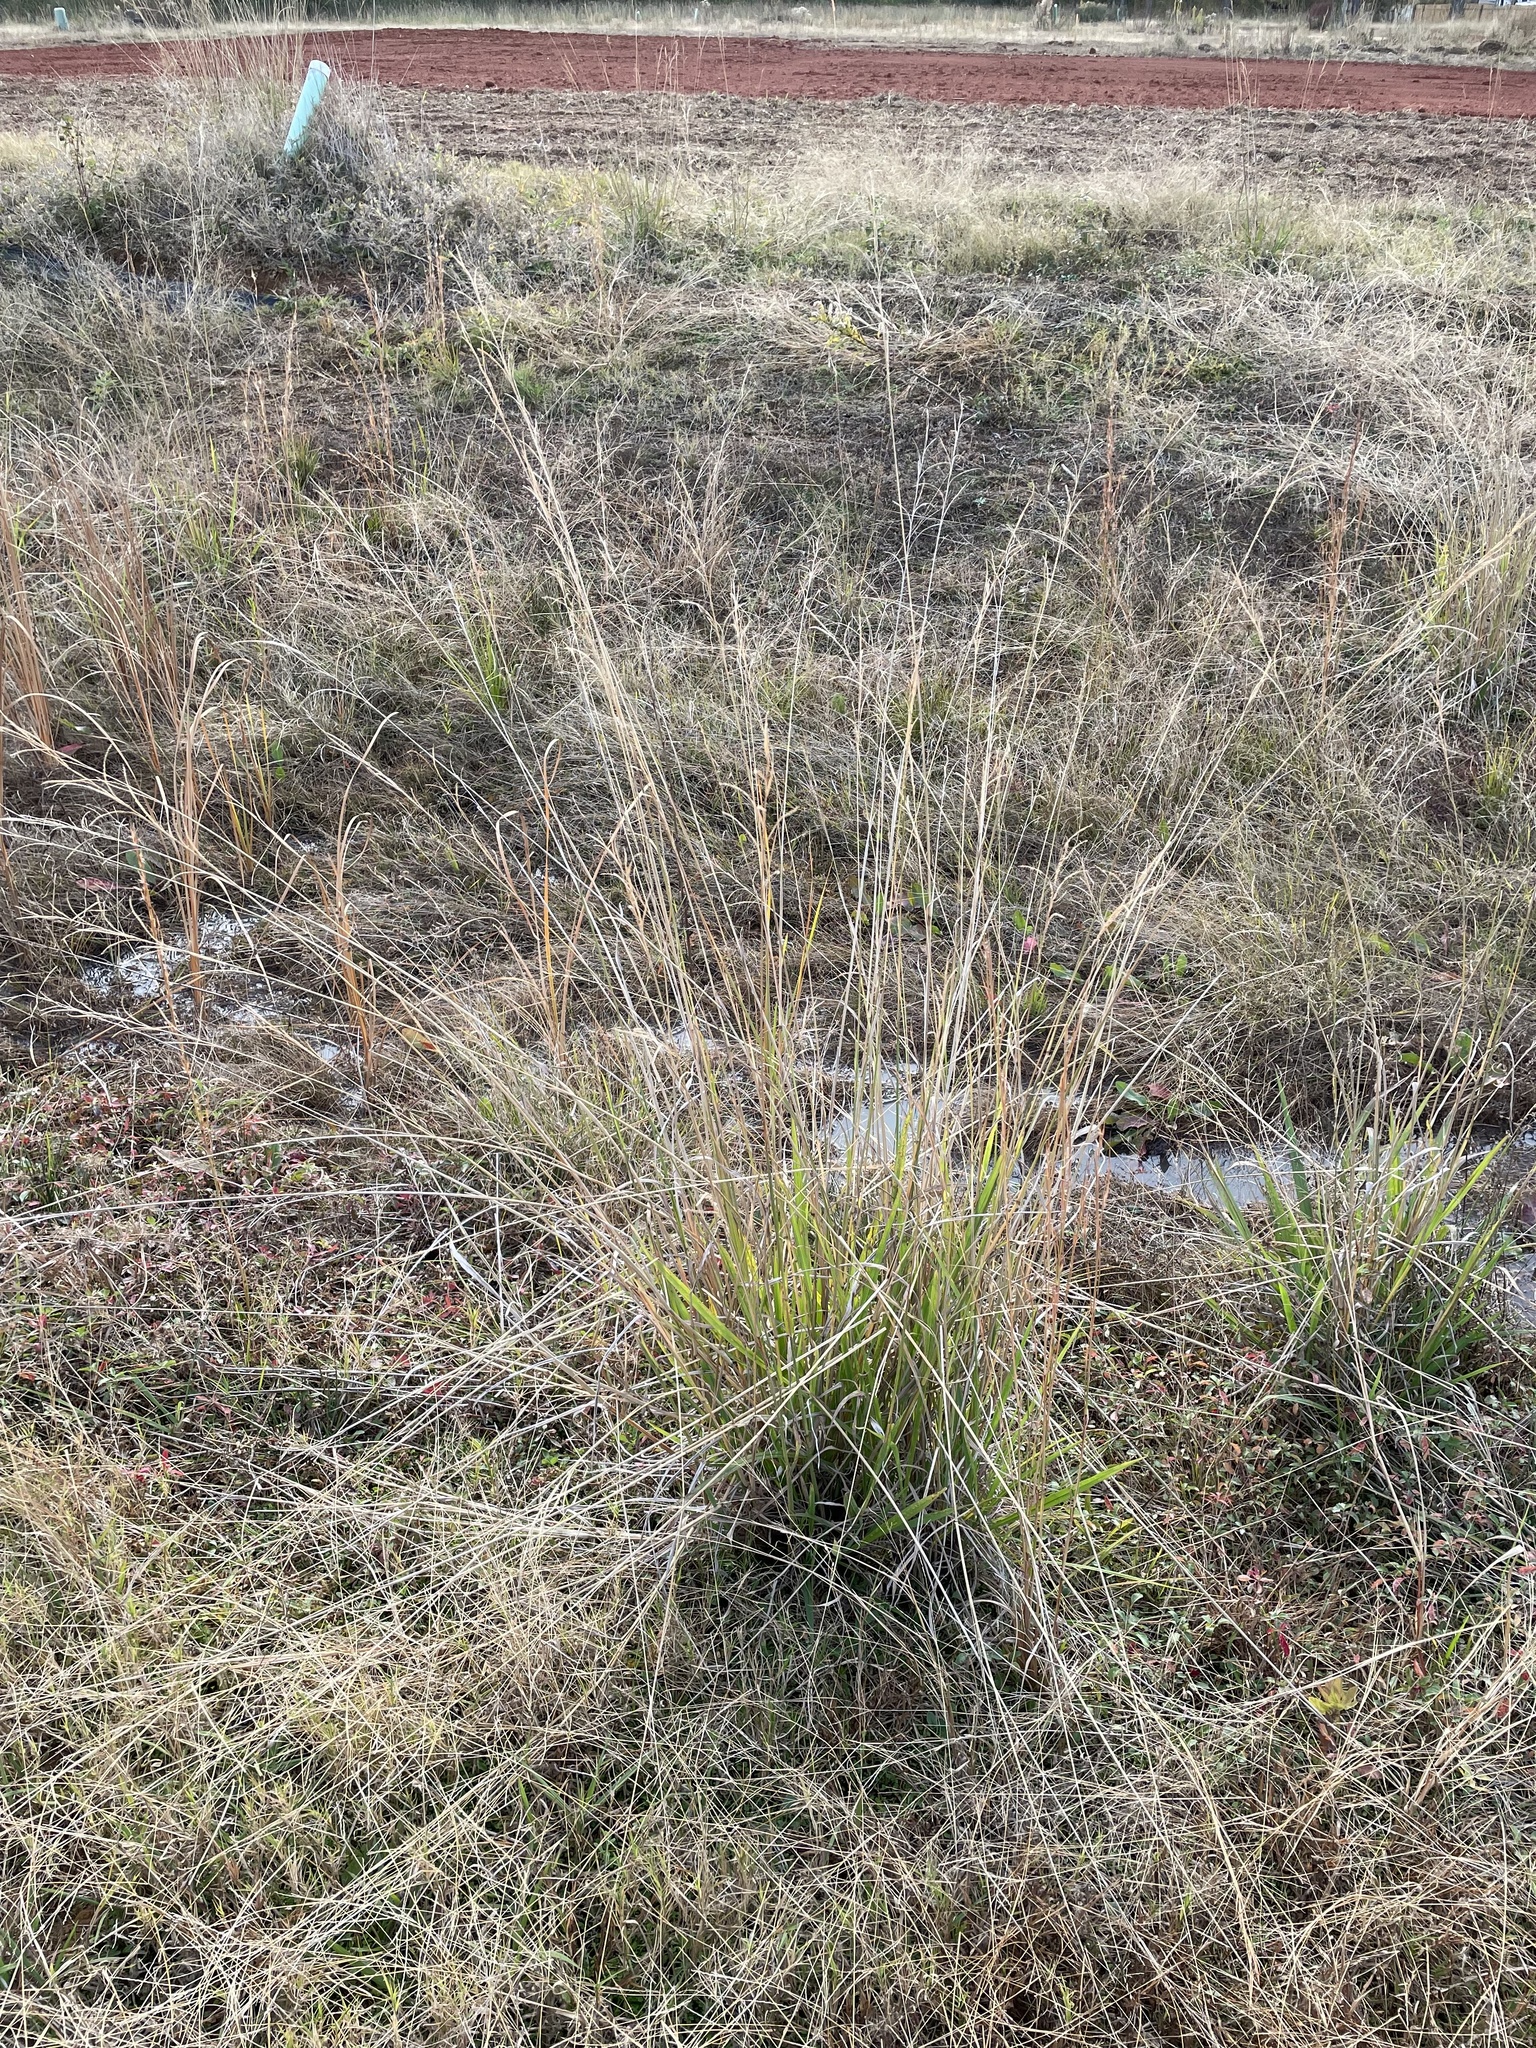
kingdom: Plantae
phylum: Tracheophyta
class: Liliopsida
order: Poales
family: Poaceae
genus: Paspalum
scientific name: Paspalum urvillei
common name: Vasey's grass
